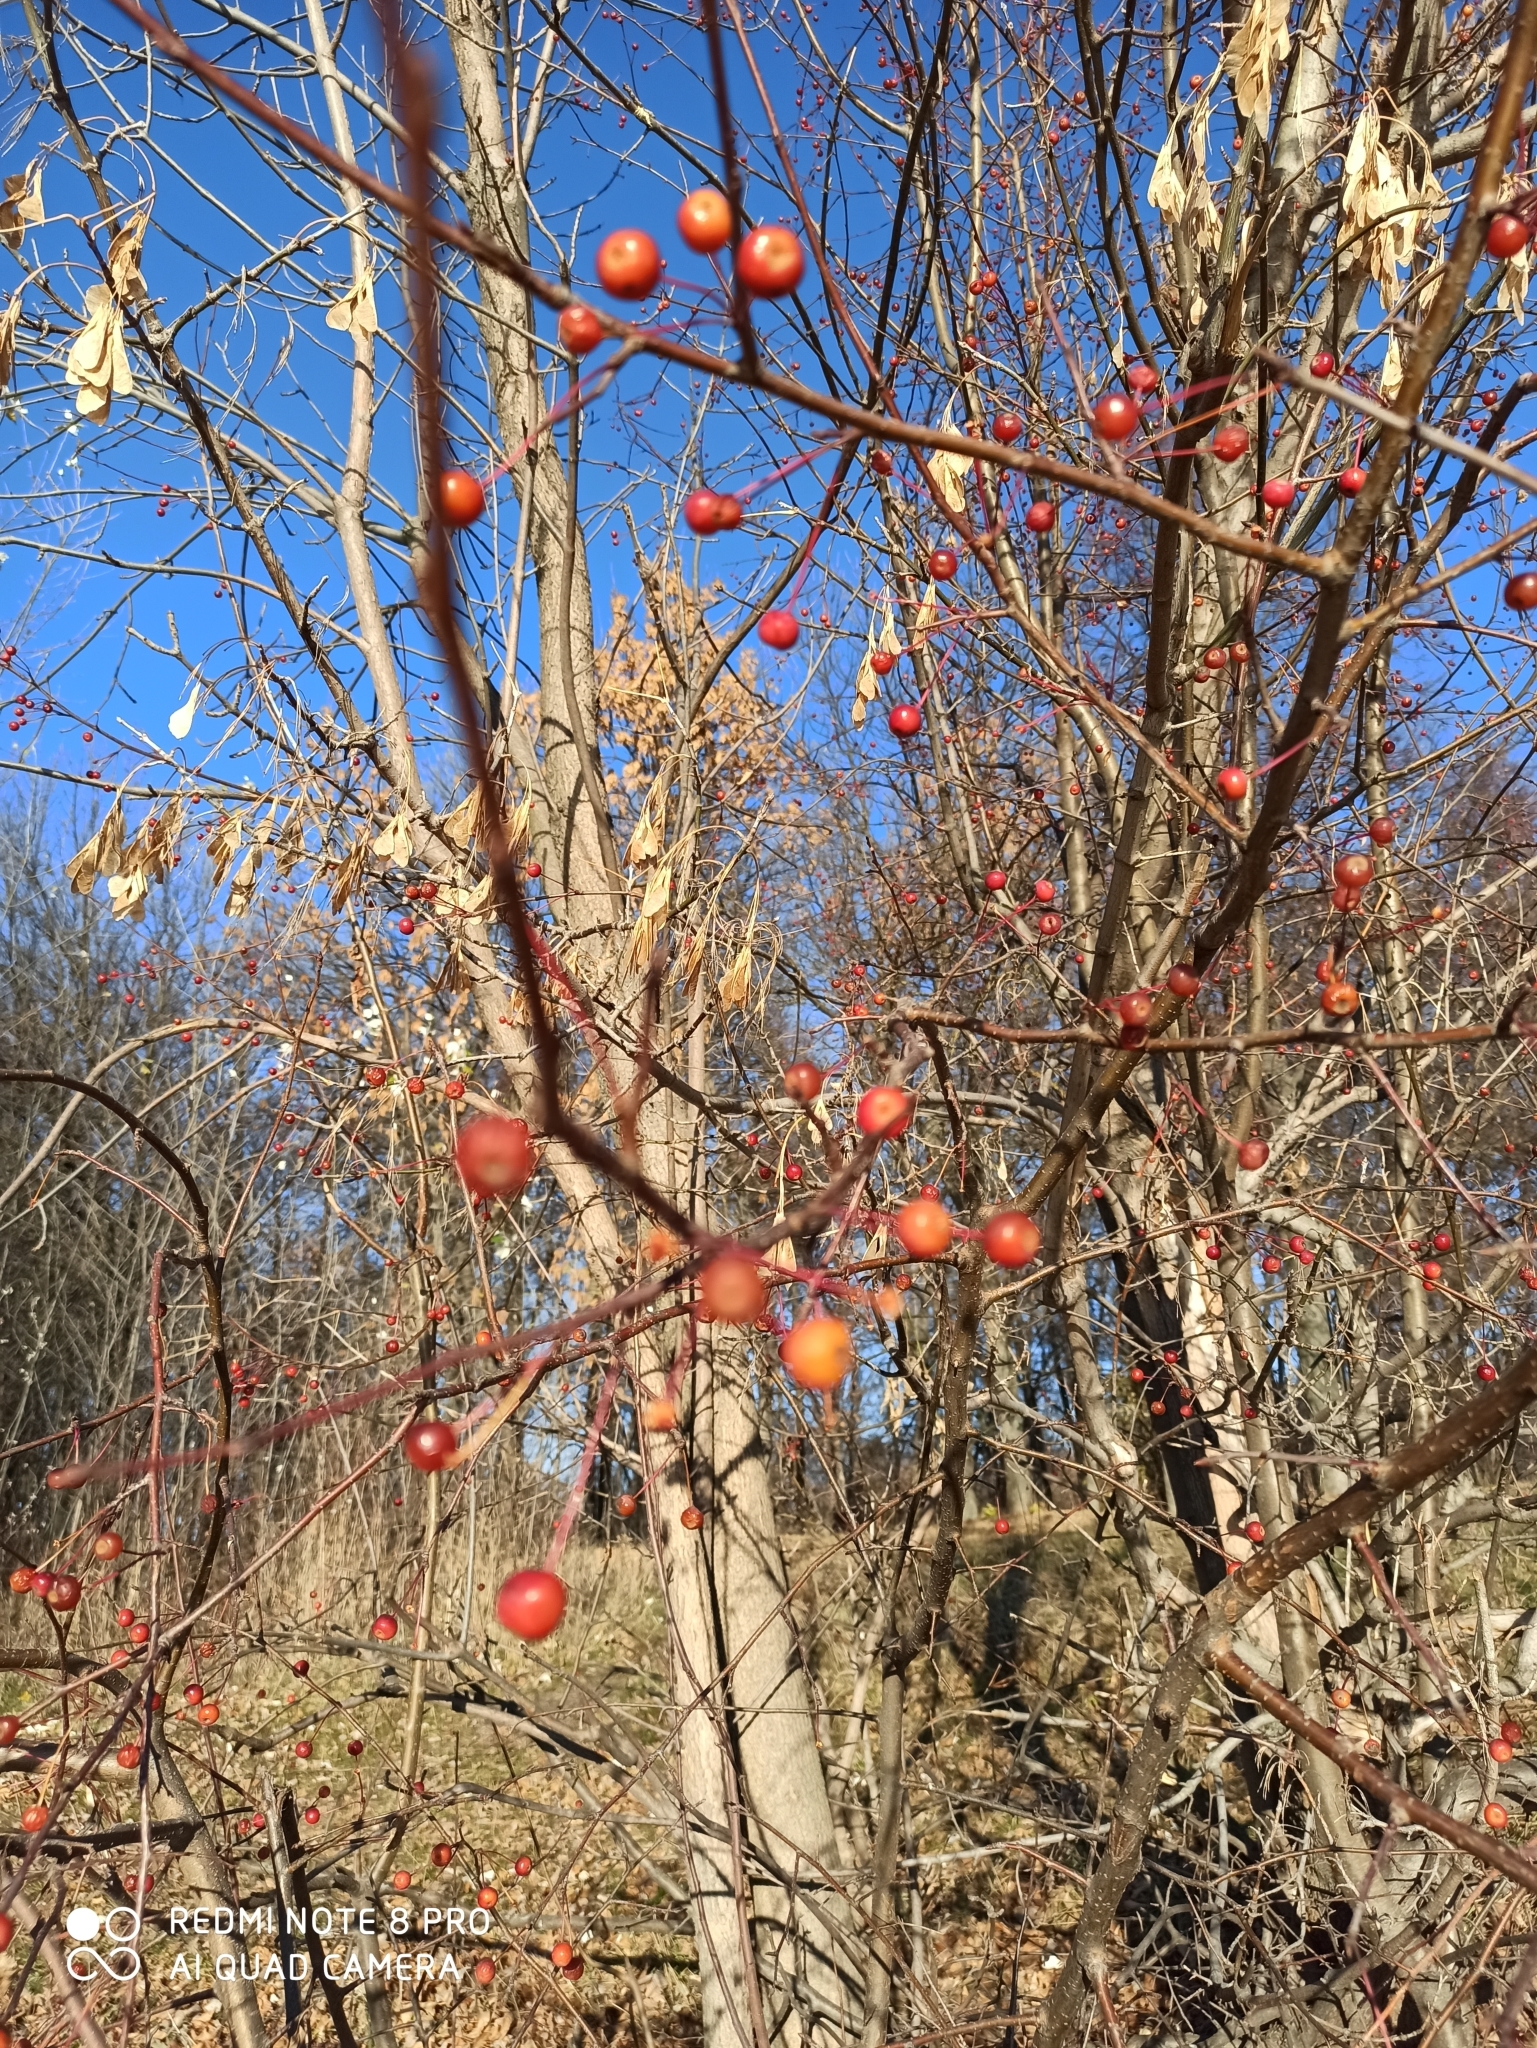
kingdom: Plantae
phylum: Tracheophyta
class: Magnoliopsida
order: Rosales
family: Rosaceae
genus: Malus
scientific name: Malus baccata
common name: Siberian crab
